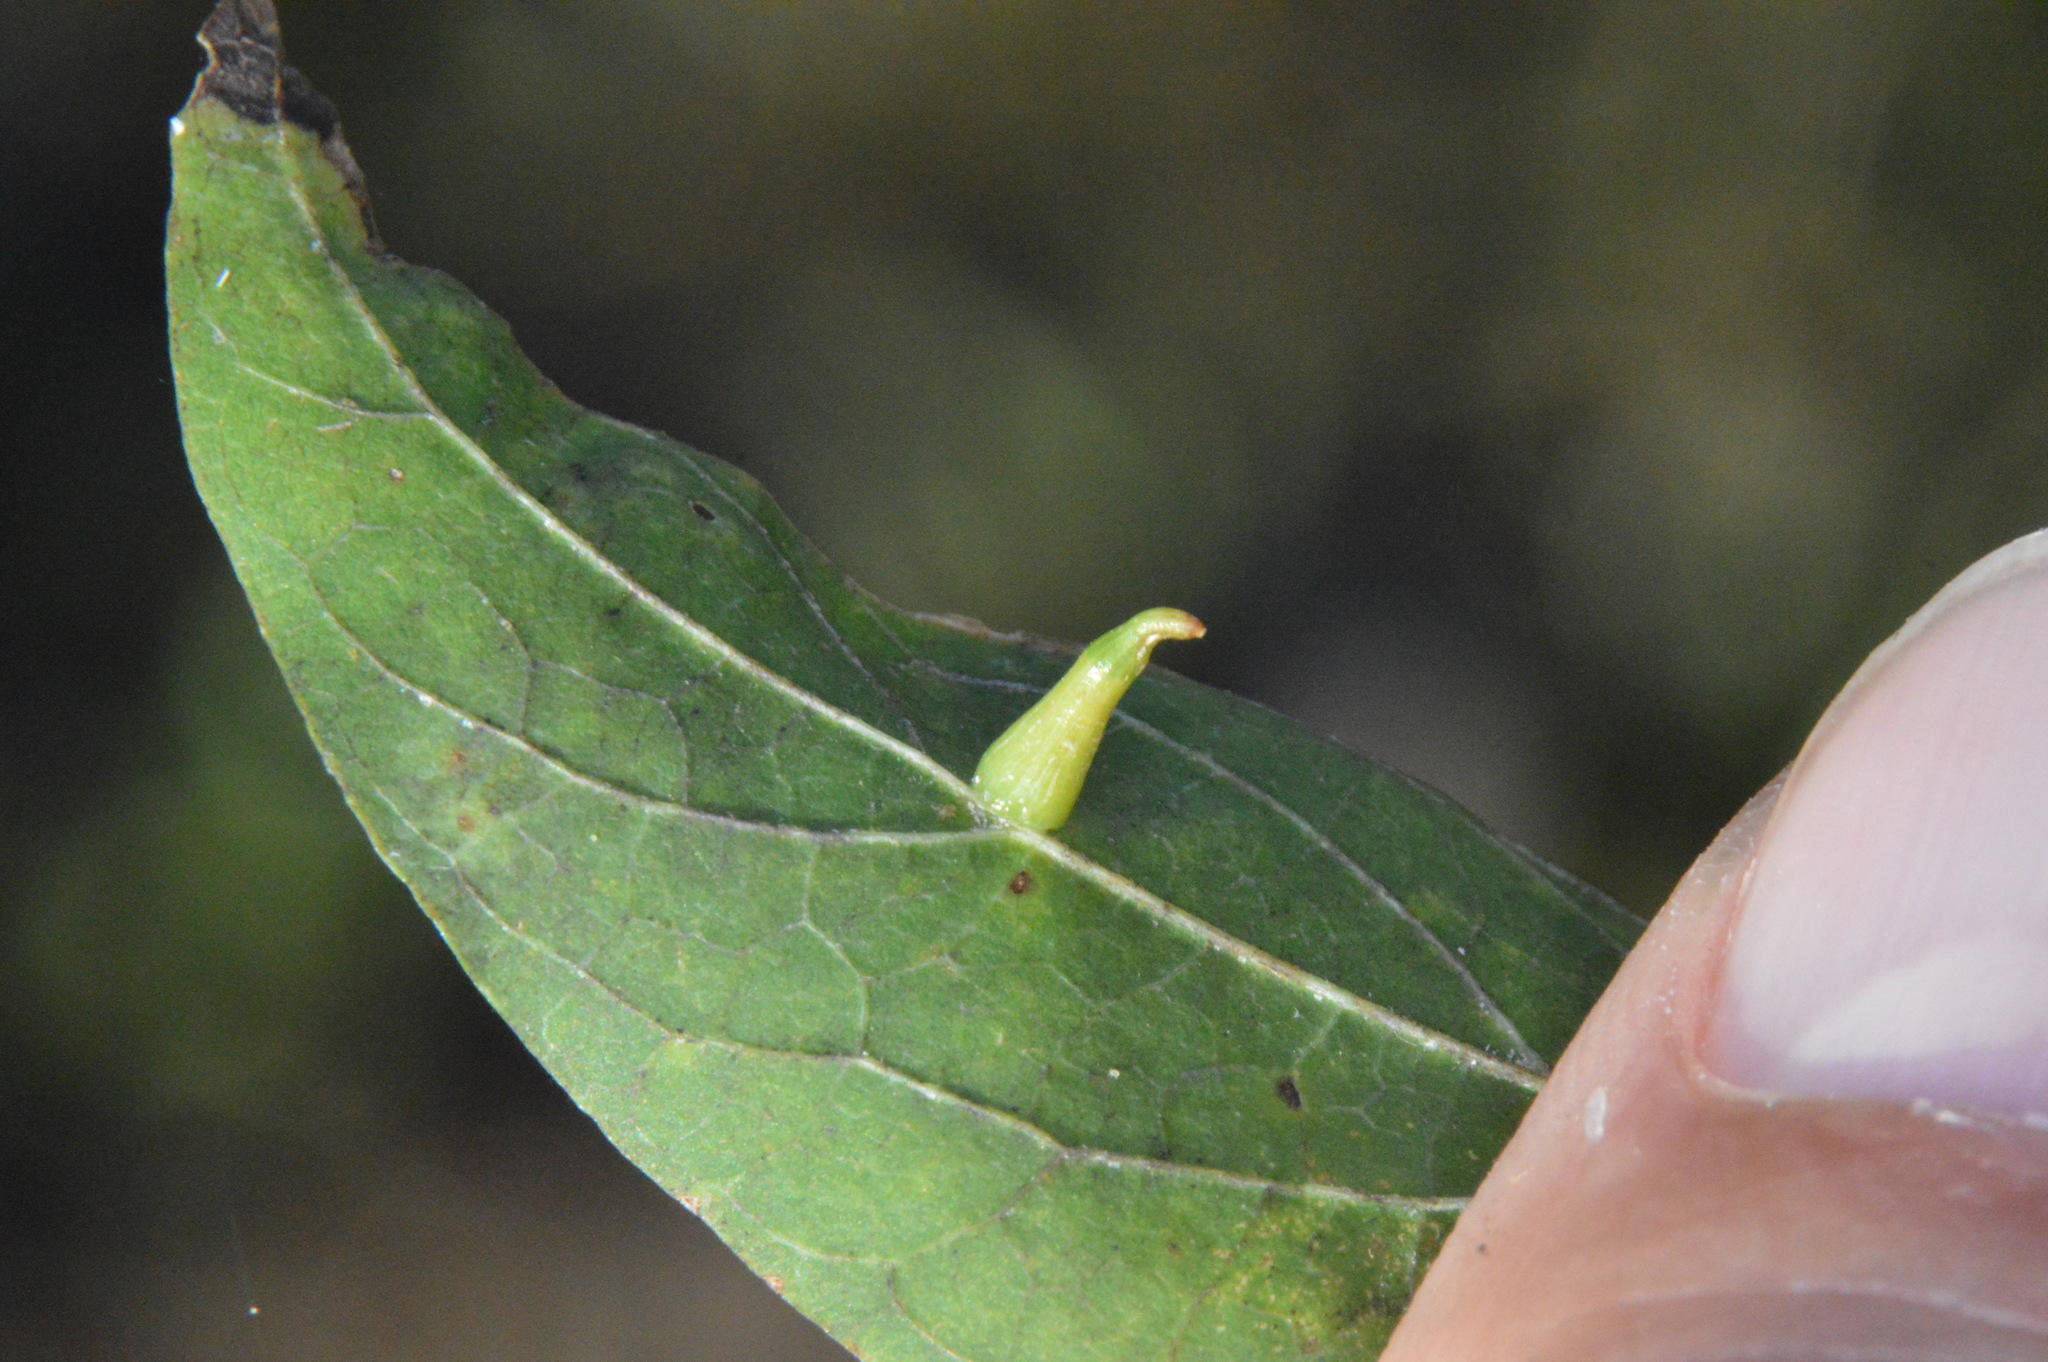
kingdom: Animalia
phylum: Arthropoda
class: Insecta
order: Diptera
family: Cecidomyiidae
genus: Celticecis
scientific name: Celticecis subulata
